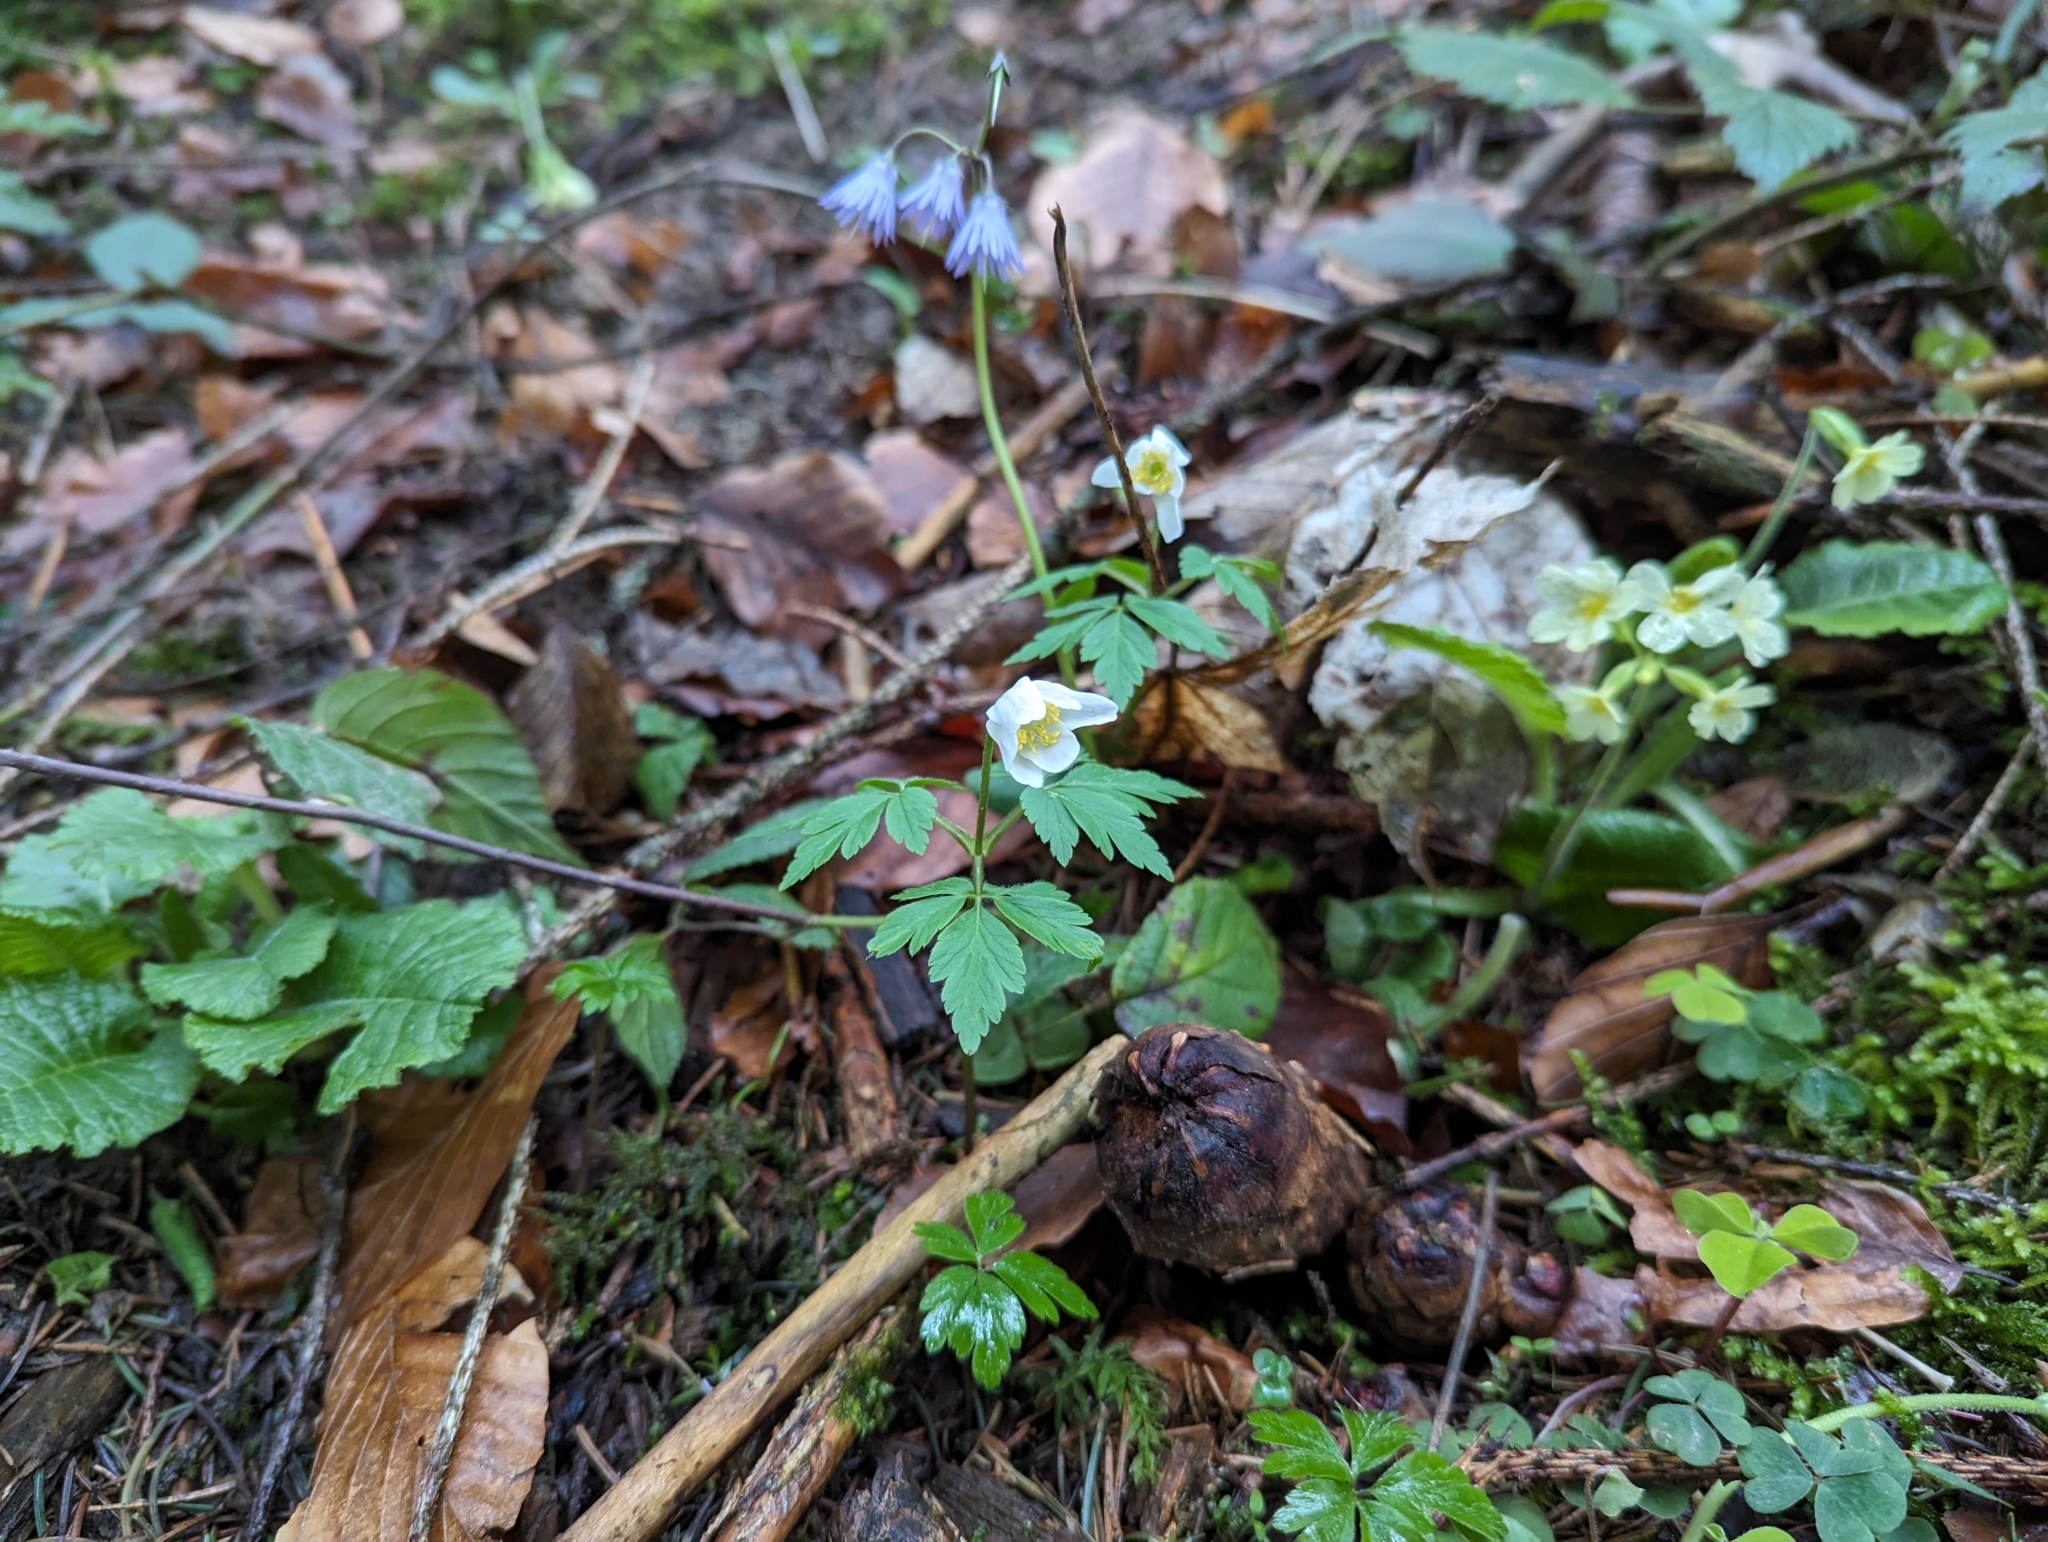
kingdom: Plantae
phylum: Tracheophyta
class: Magnoliopsida
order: Ranunculales
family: Ranunculaceae
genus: Anemone
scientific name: Anemone nemorosa
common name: Wood anemone
